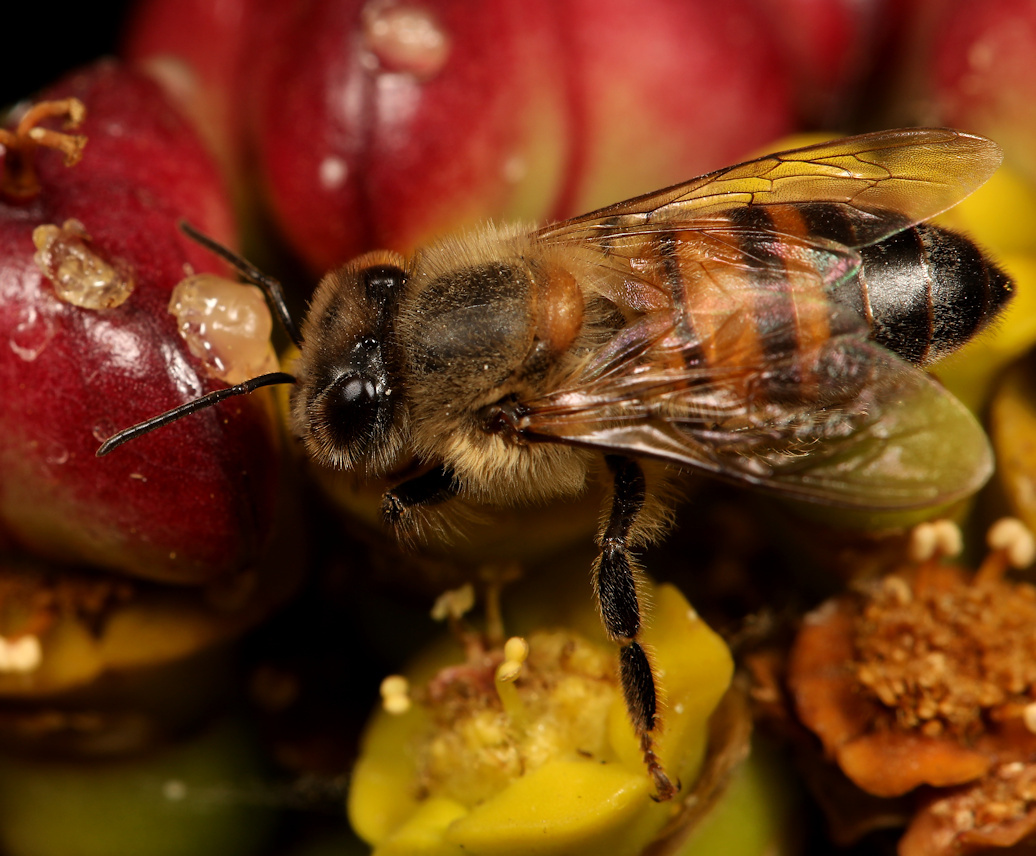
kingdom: Animalia
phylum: Arthropoda
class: Insecta
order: Hymenoptera
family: Apidae
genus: Apis
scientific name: Apis mellifera
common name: Honey bee
